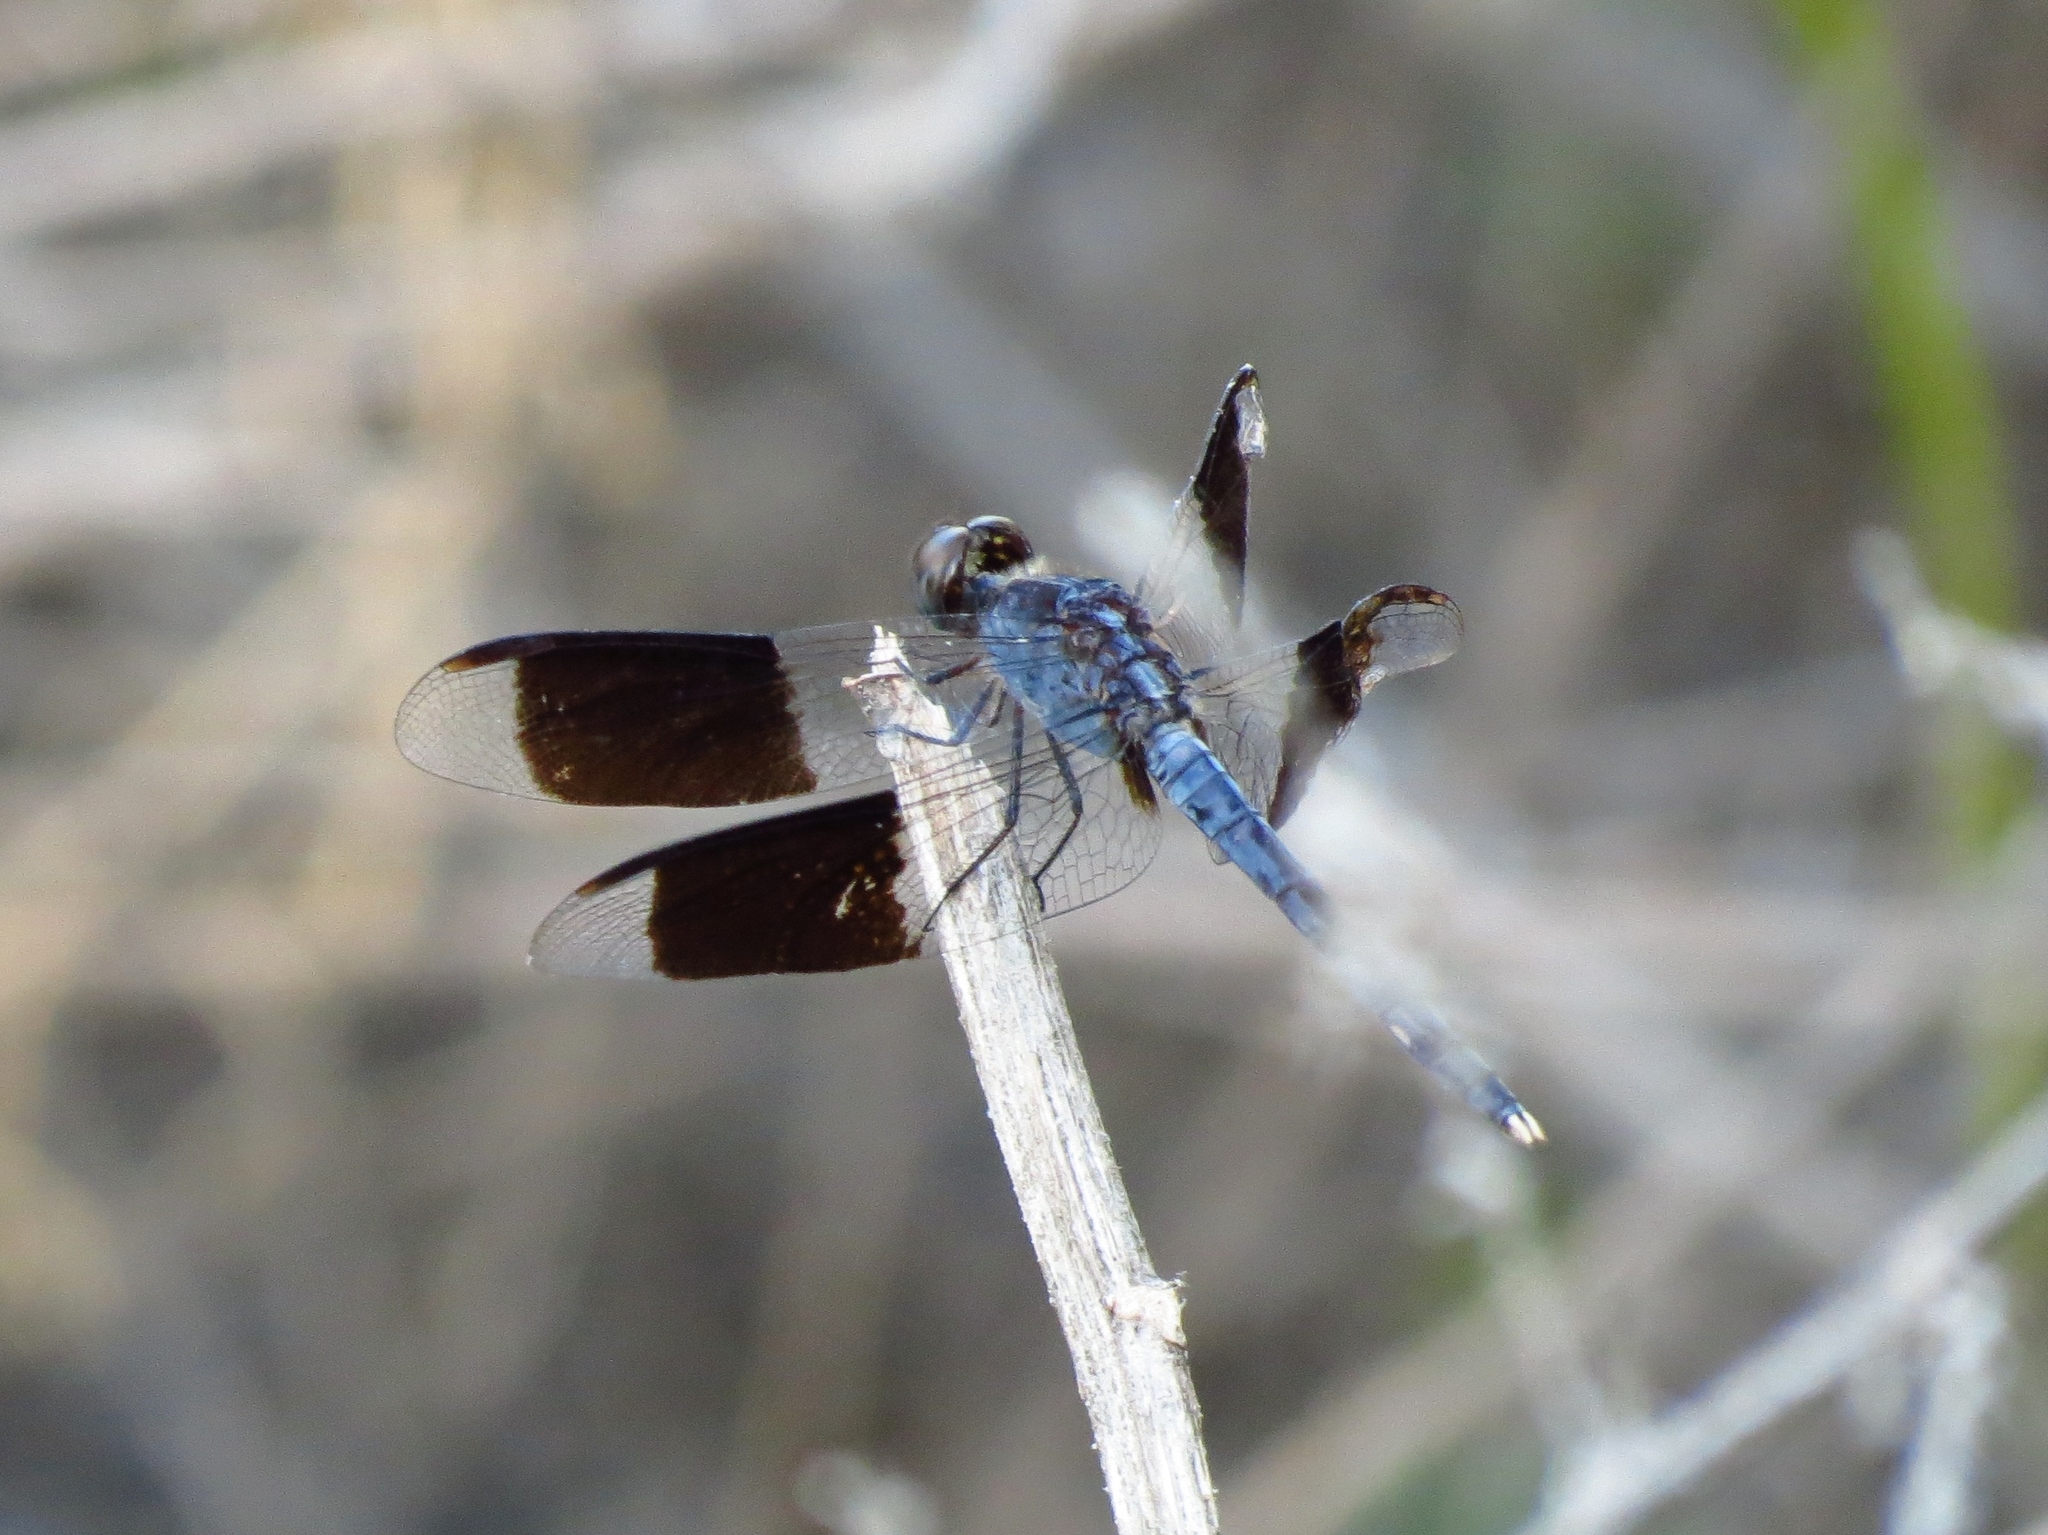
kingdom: Animalia
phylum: Arthropoda
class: Insecta
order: Odonata
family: Libellulidae
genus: Erythrodiplax
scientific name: Erythrodiplax umbrata
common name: Band-winged dragonlet
